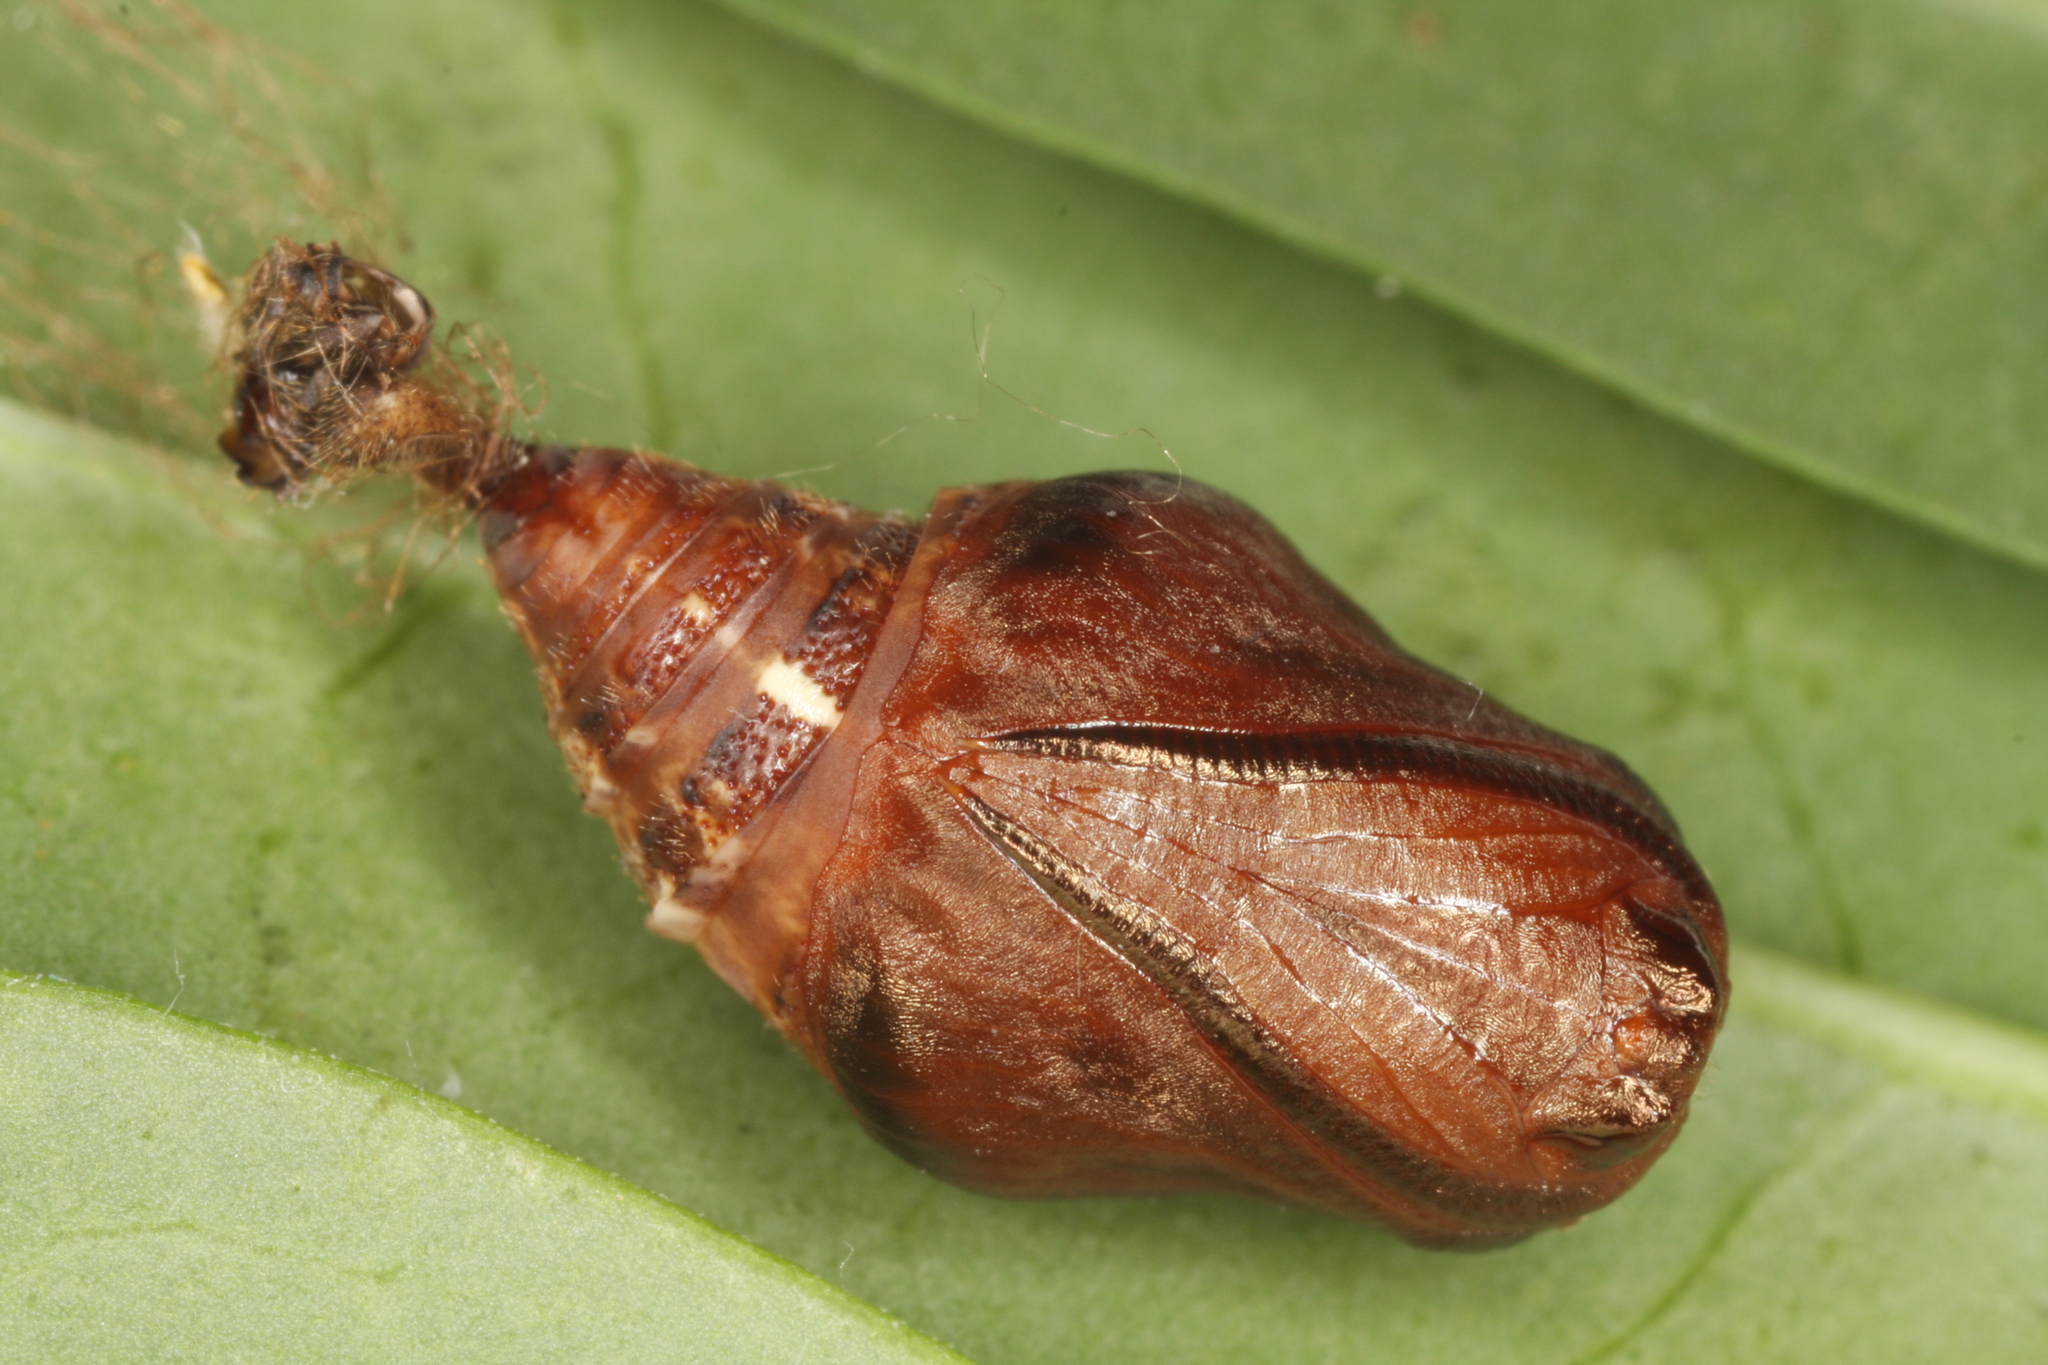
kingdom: Animalia
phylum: Arthropoda
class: Insecta
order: Lepidoptera
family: Geometridae
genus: Apeira
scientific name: Apeira syringaria
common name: Lilac beauty
